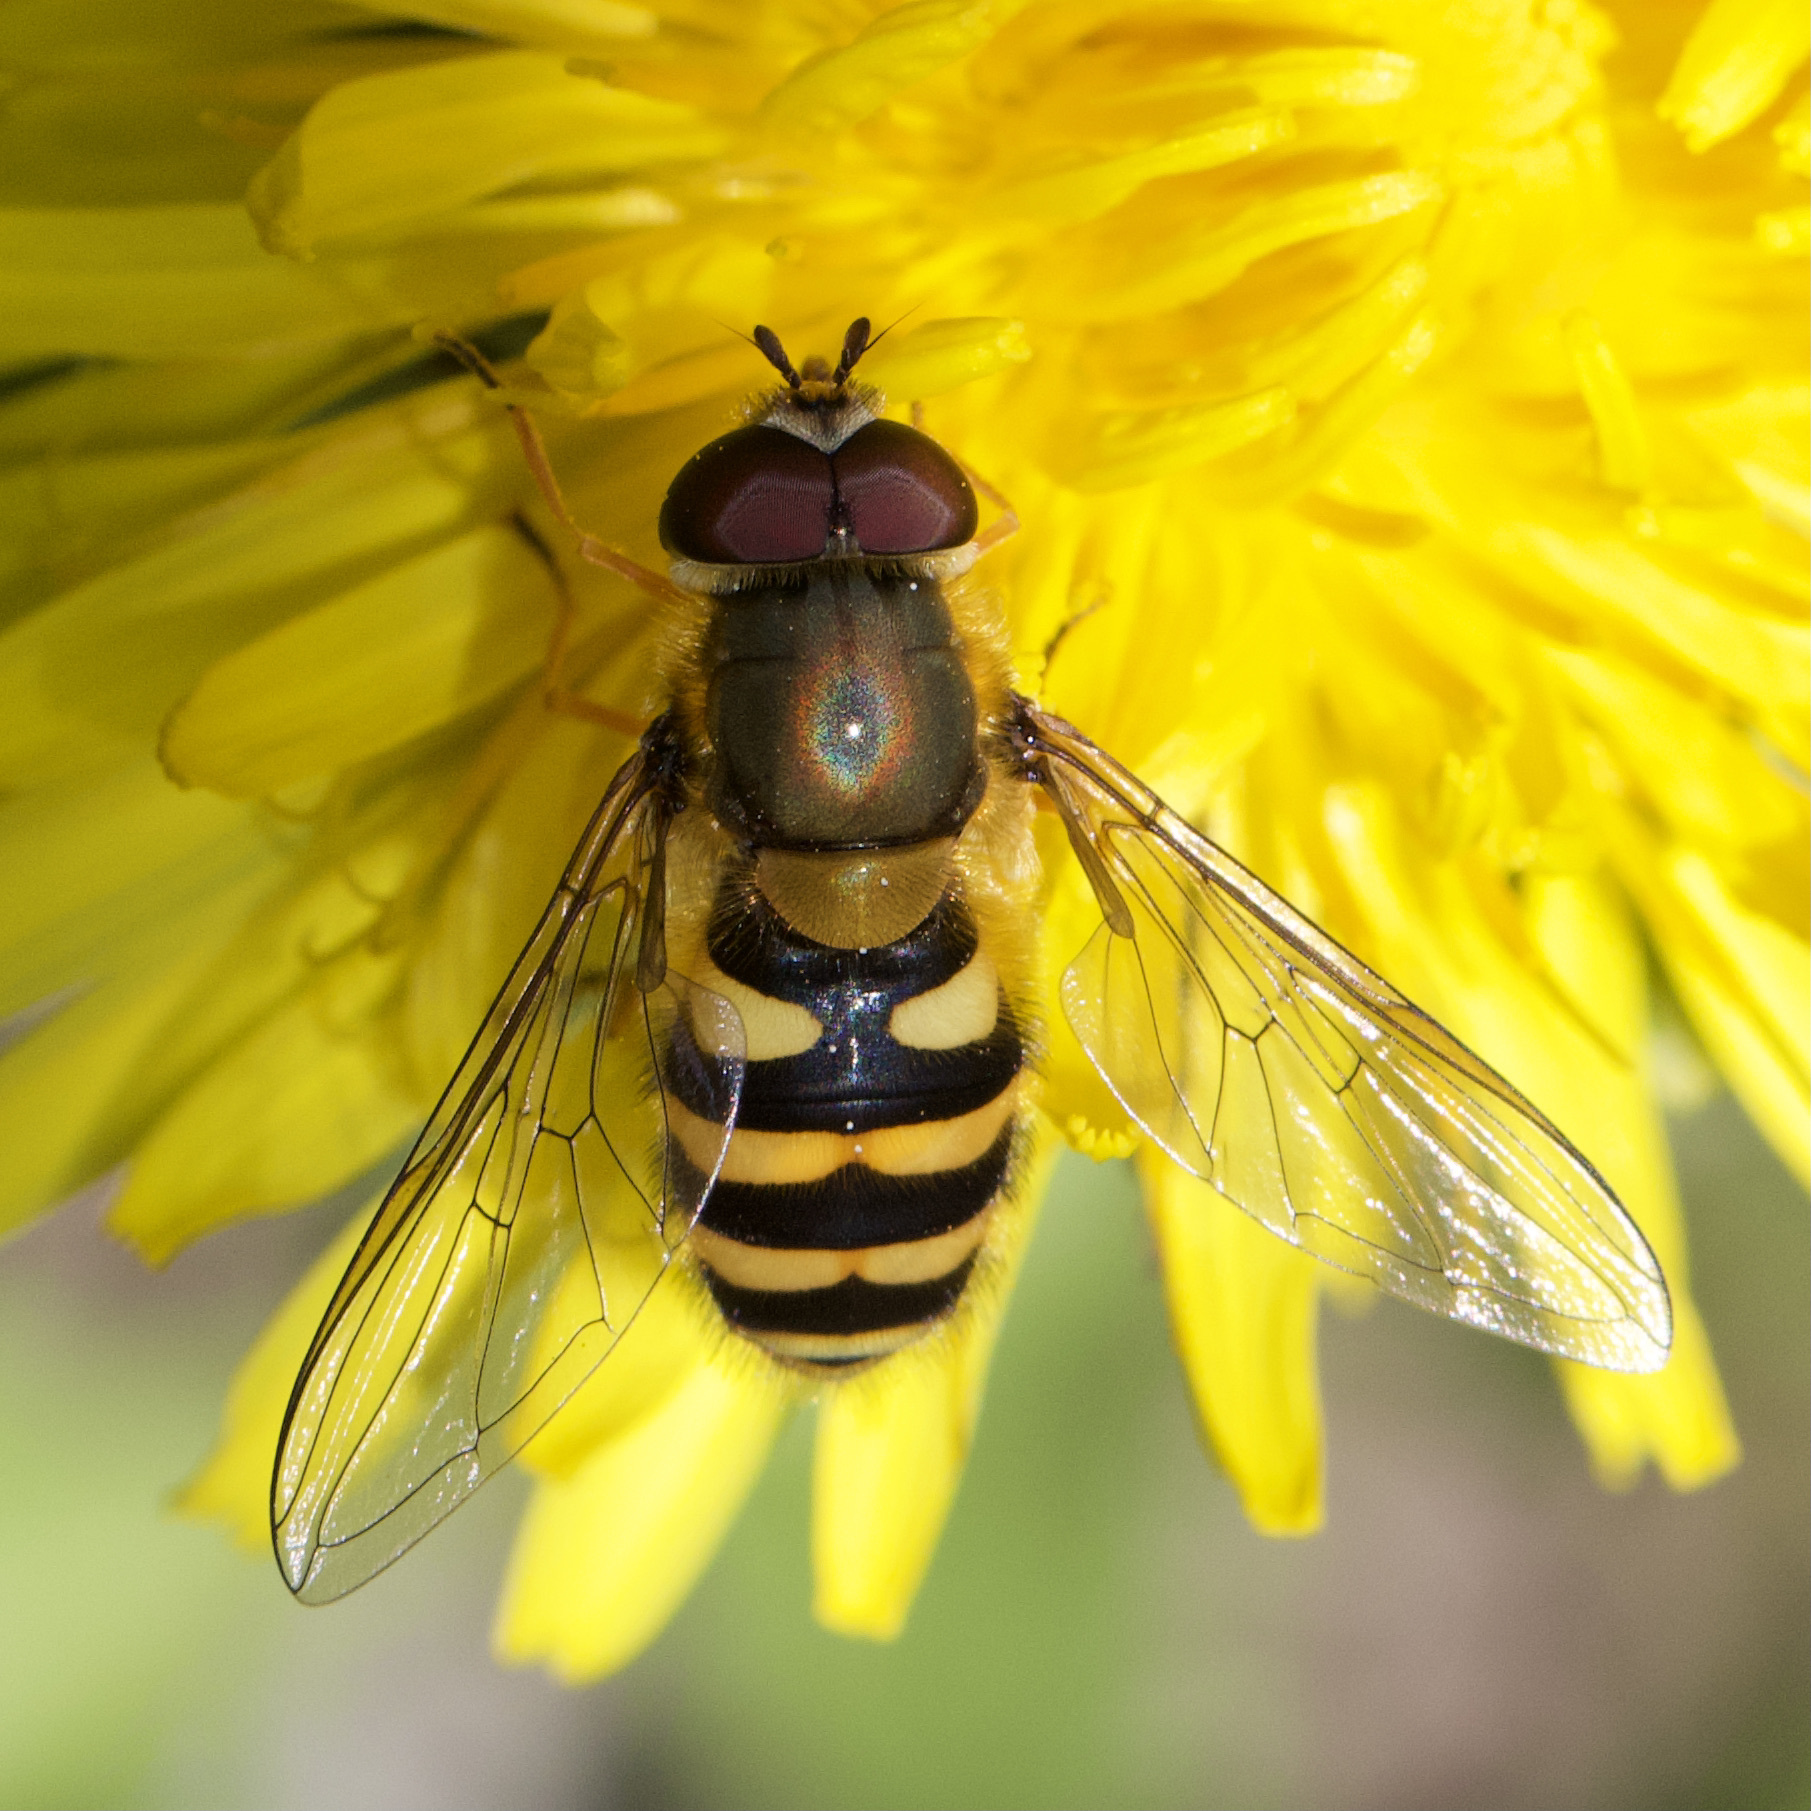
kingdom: Animalia
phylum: Arthropoda
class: Insecta
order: Diptera
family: Syrphidae
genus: Syrphus
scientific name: Syrphus
